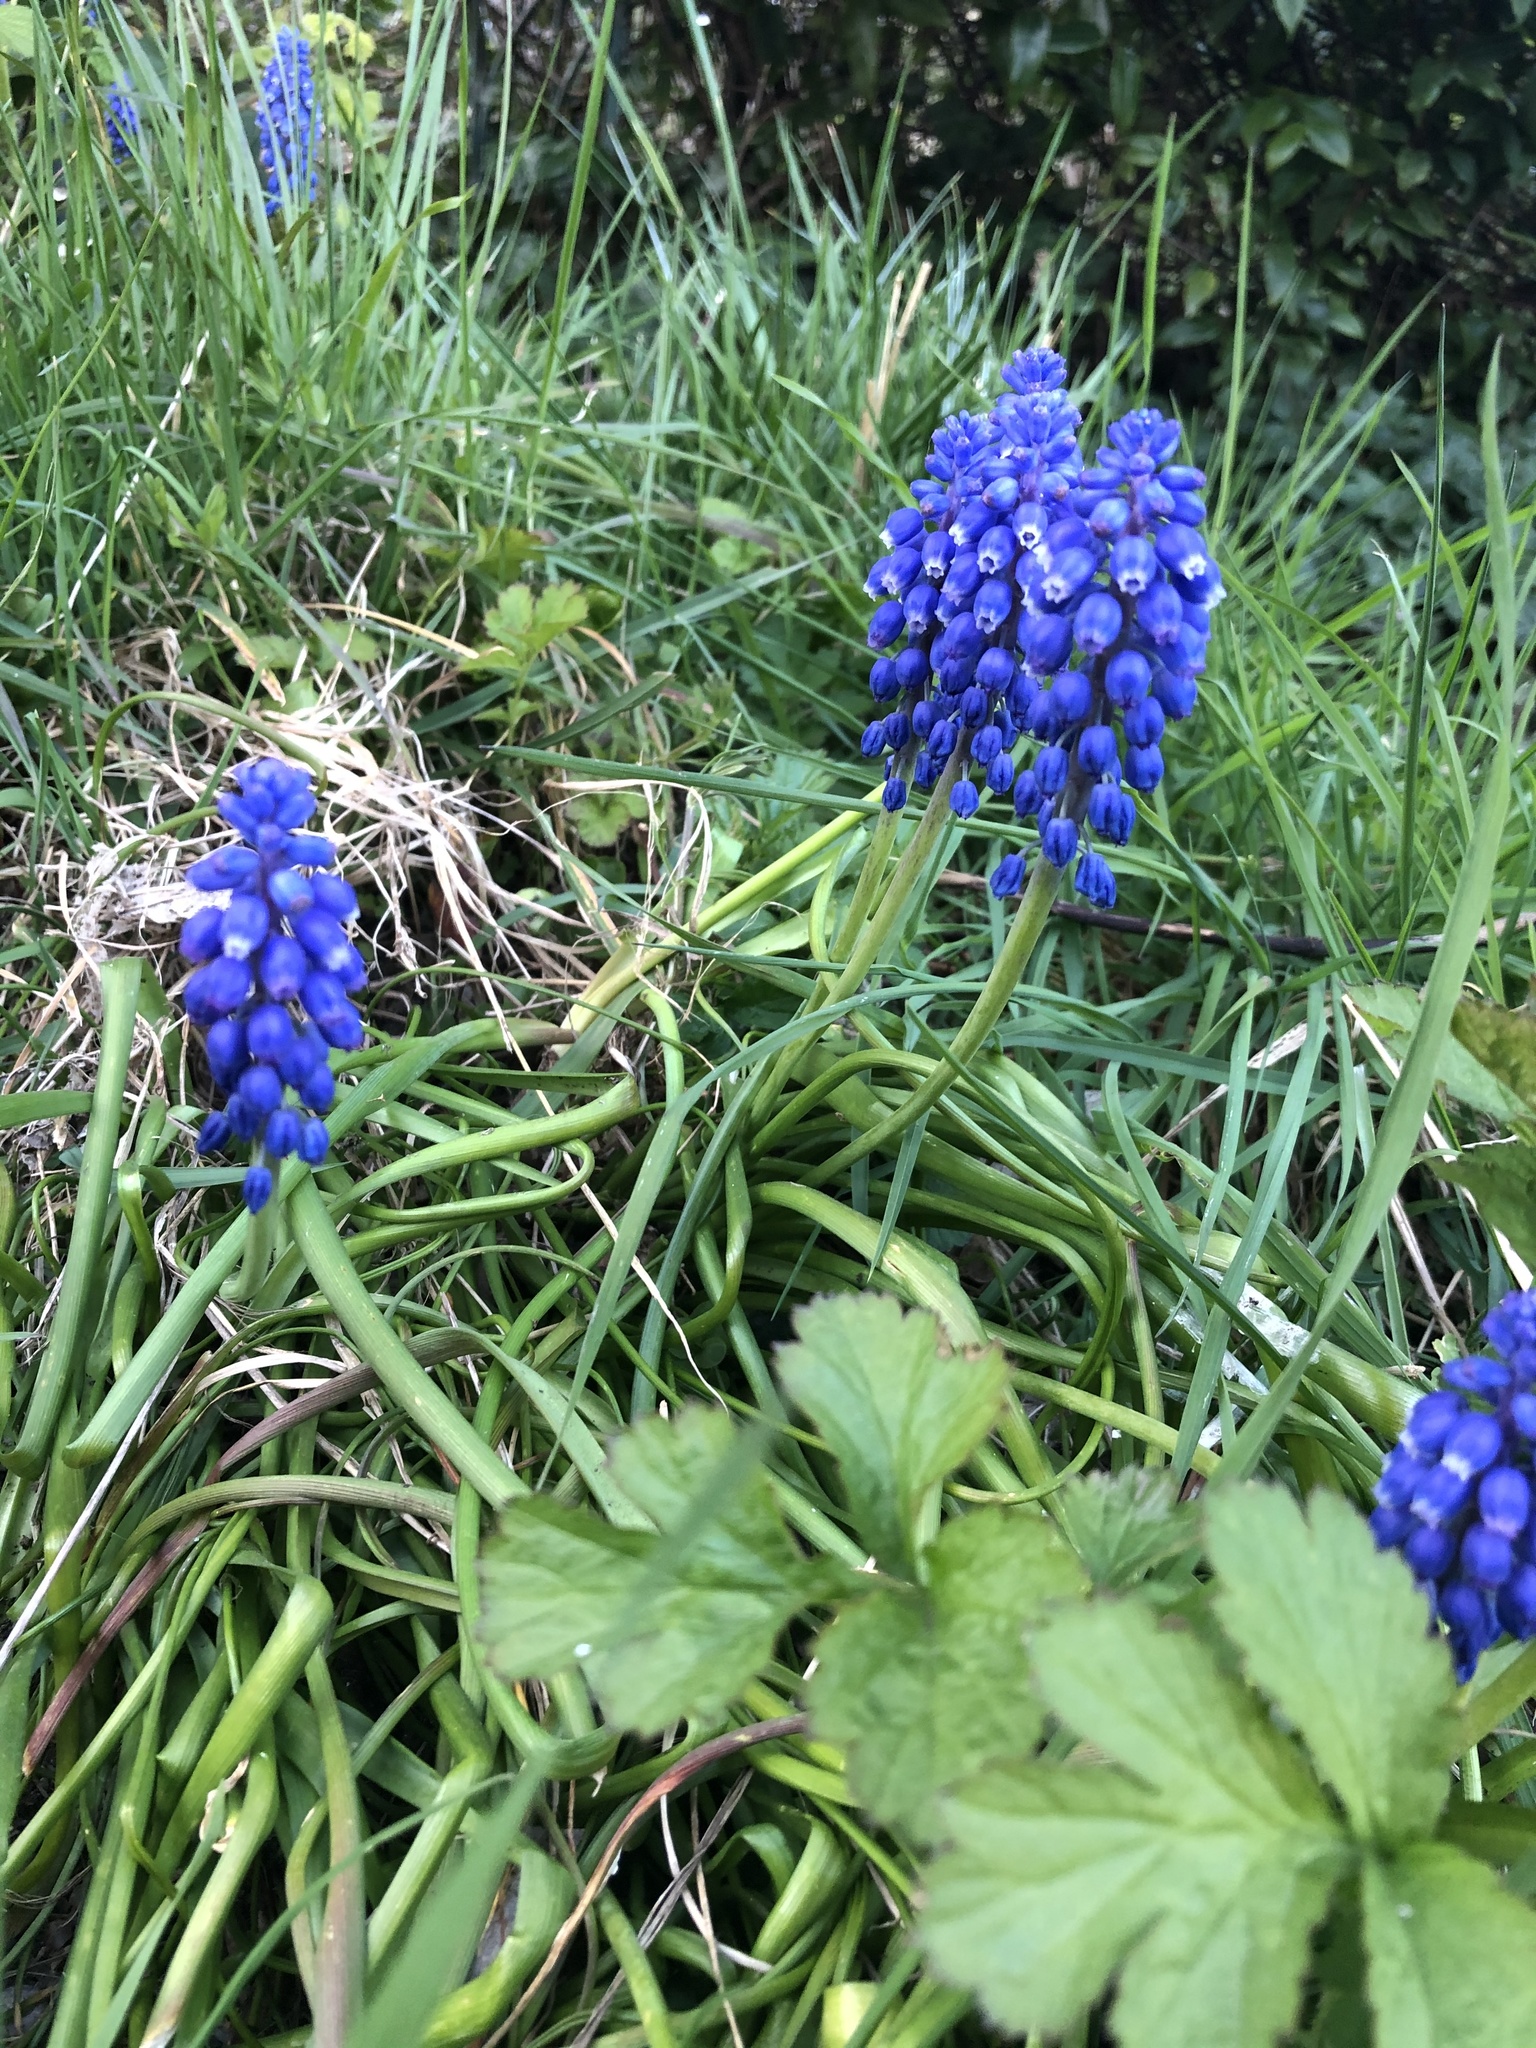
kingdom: Plantae
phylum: Tracheophyta
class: Liliopsida
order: Asparagales
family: Asparagaceae
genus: Muscari
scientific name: Muscari armeniacum
